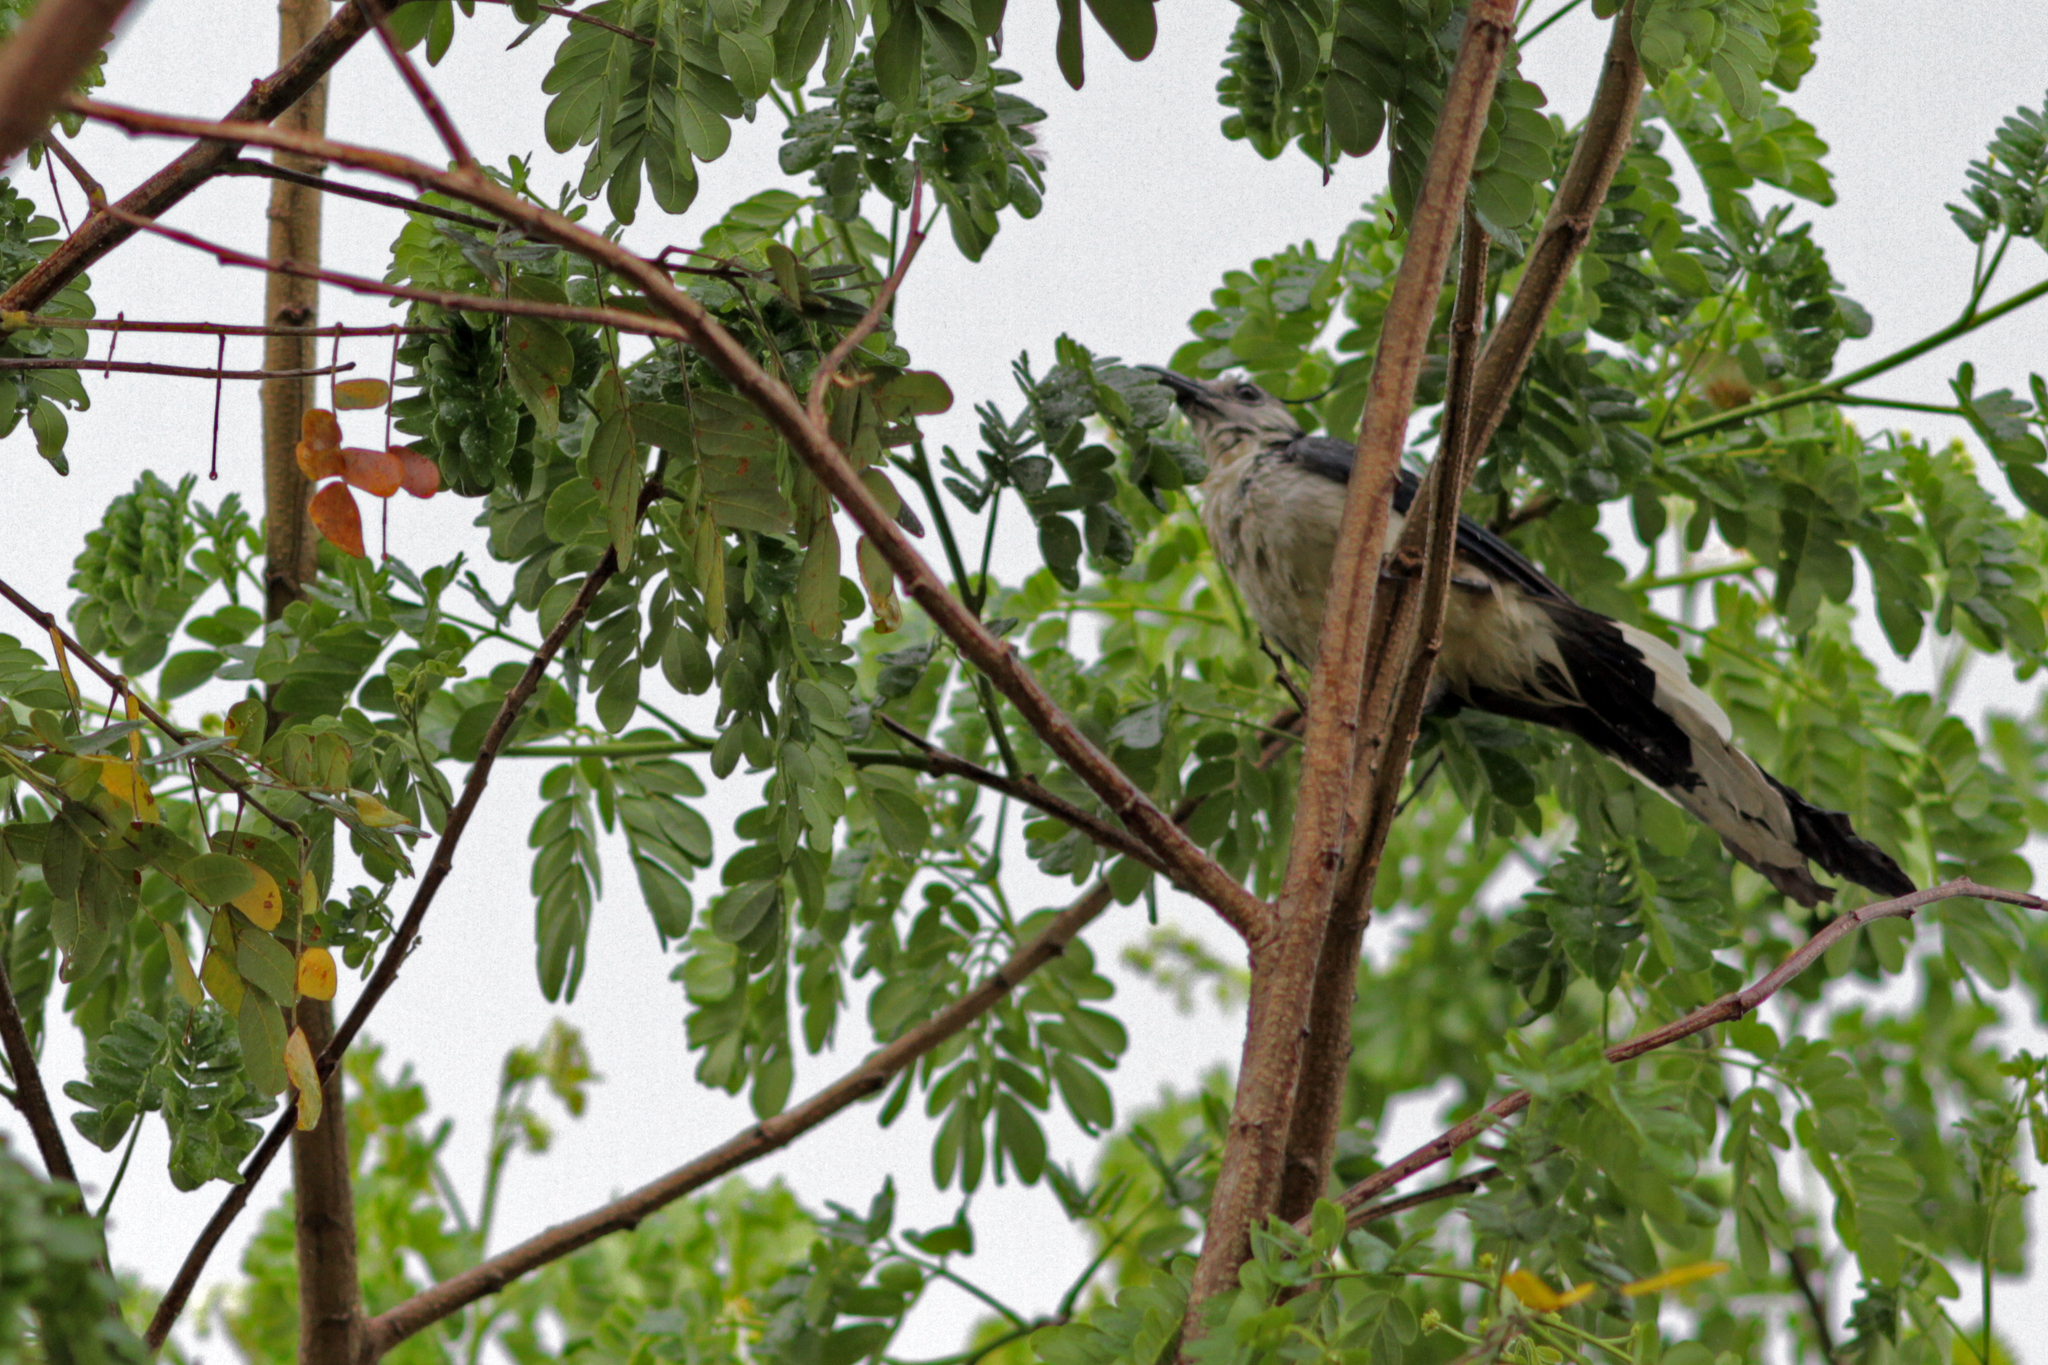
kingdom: Animalia
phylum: Chordata
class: Aves
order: Passeriformes
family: Corvidae
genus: Calocitta
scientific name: Calocitta formosa
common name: White-throated magpie-jay
